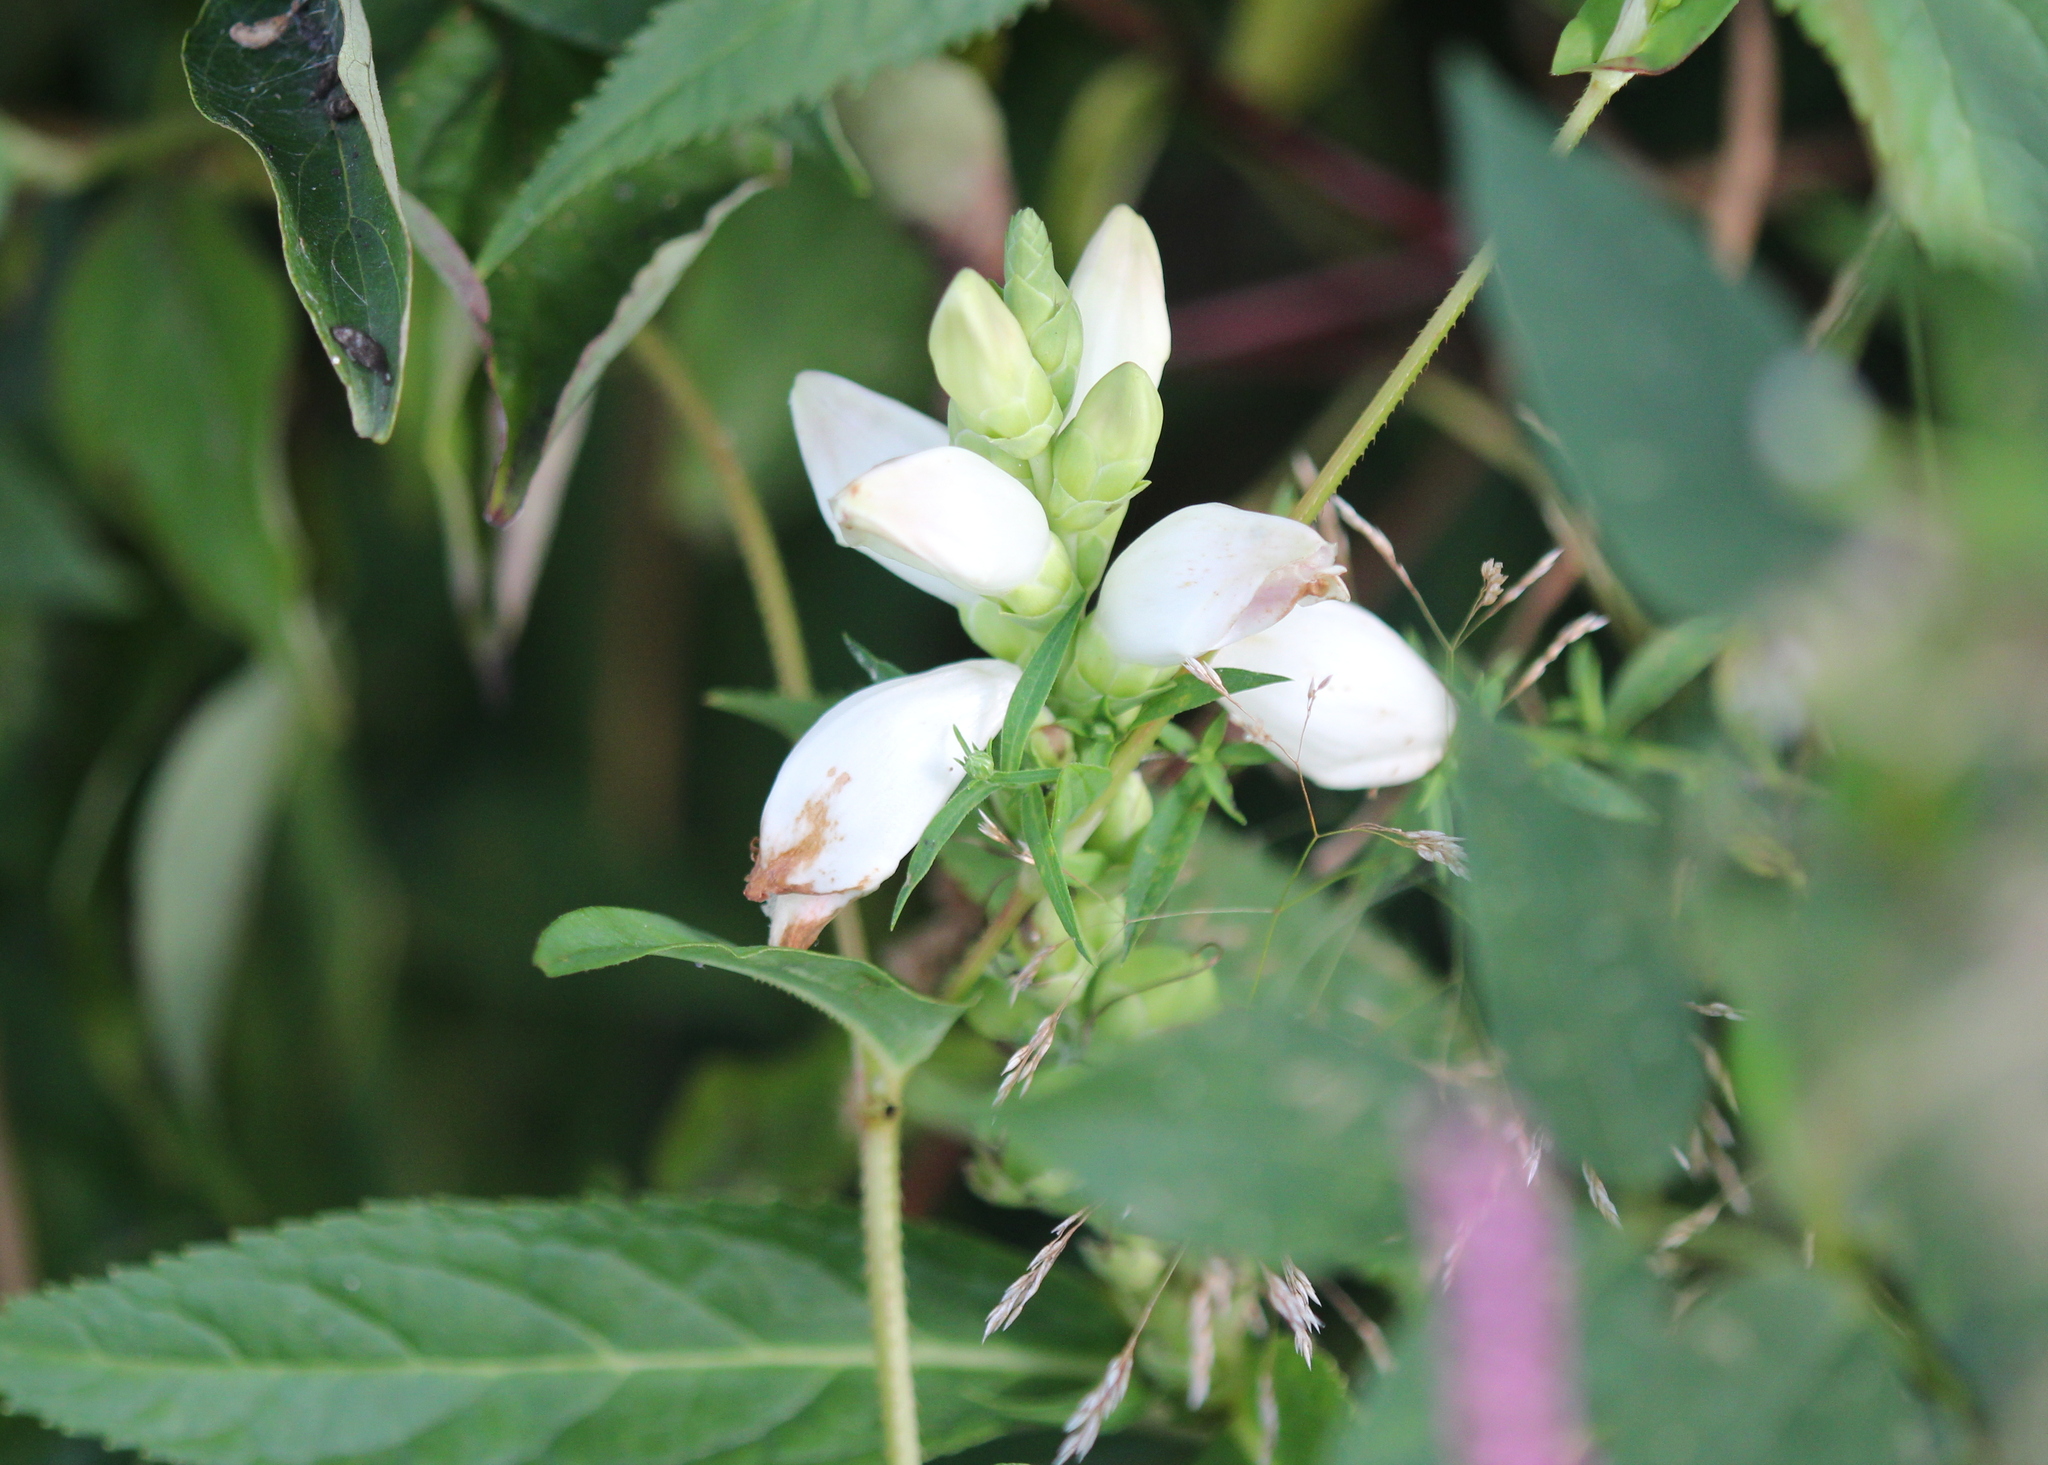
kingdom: Plantae
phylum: Tracheophyta
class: Magnoliopsida
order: Lamiales
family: Plantaginaceae
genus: Chelone
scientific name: Chelone glabra
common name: Snakehead
